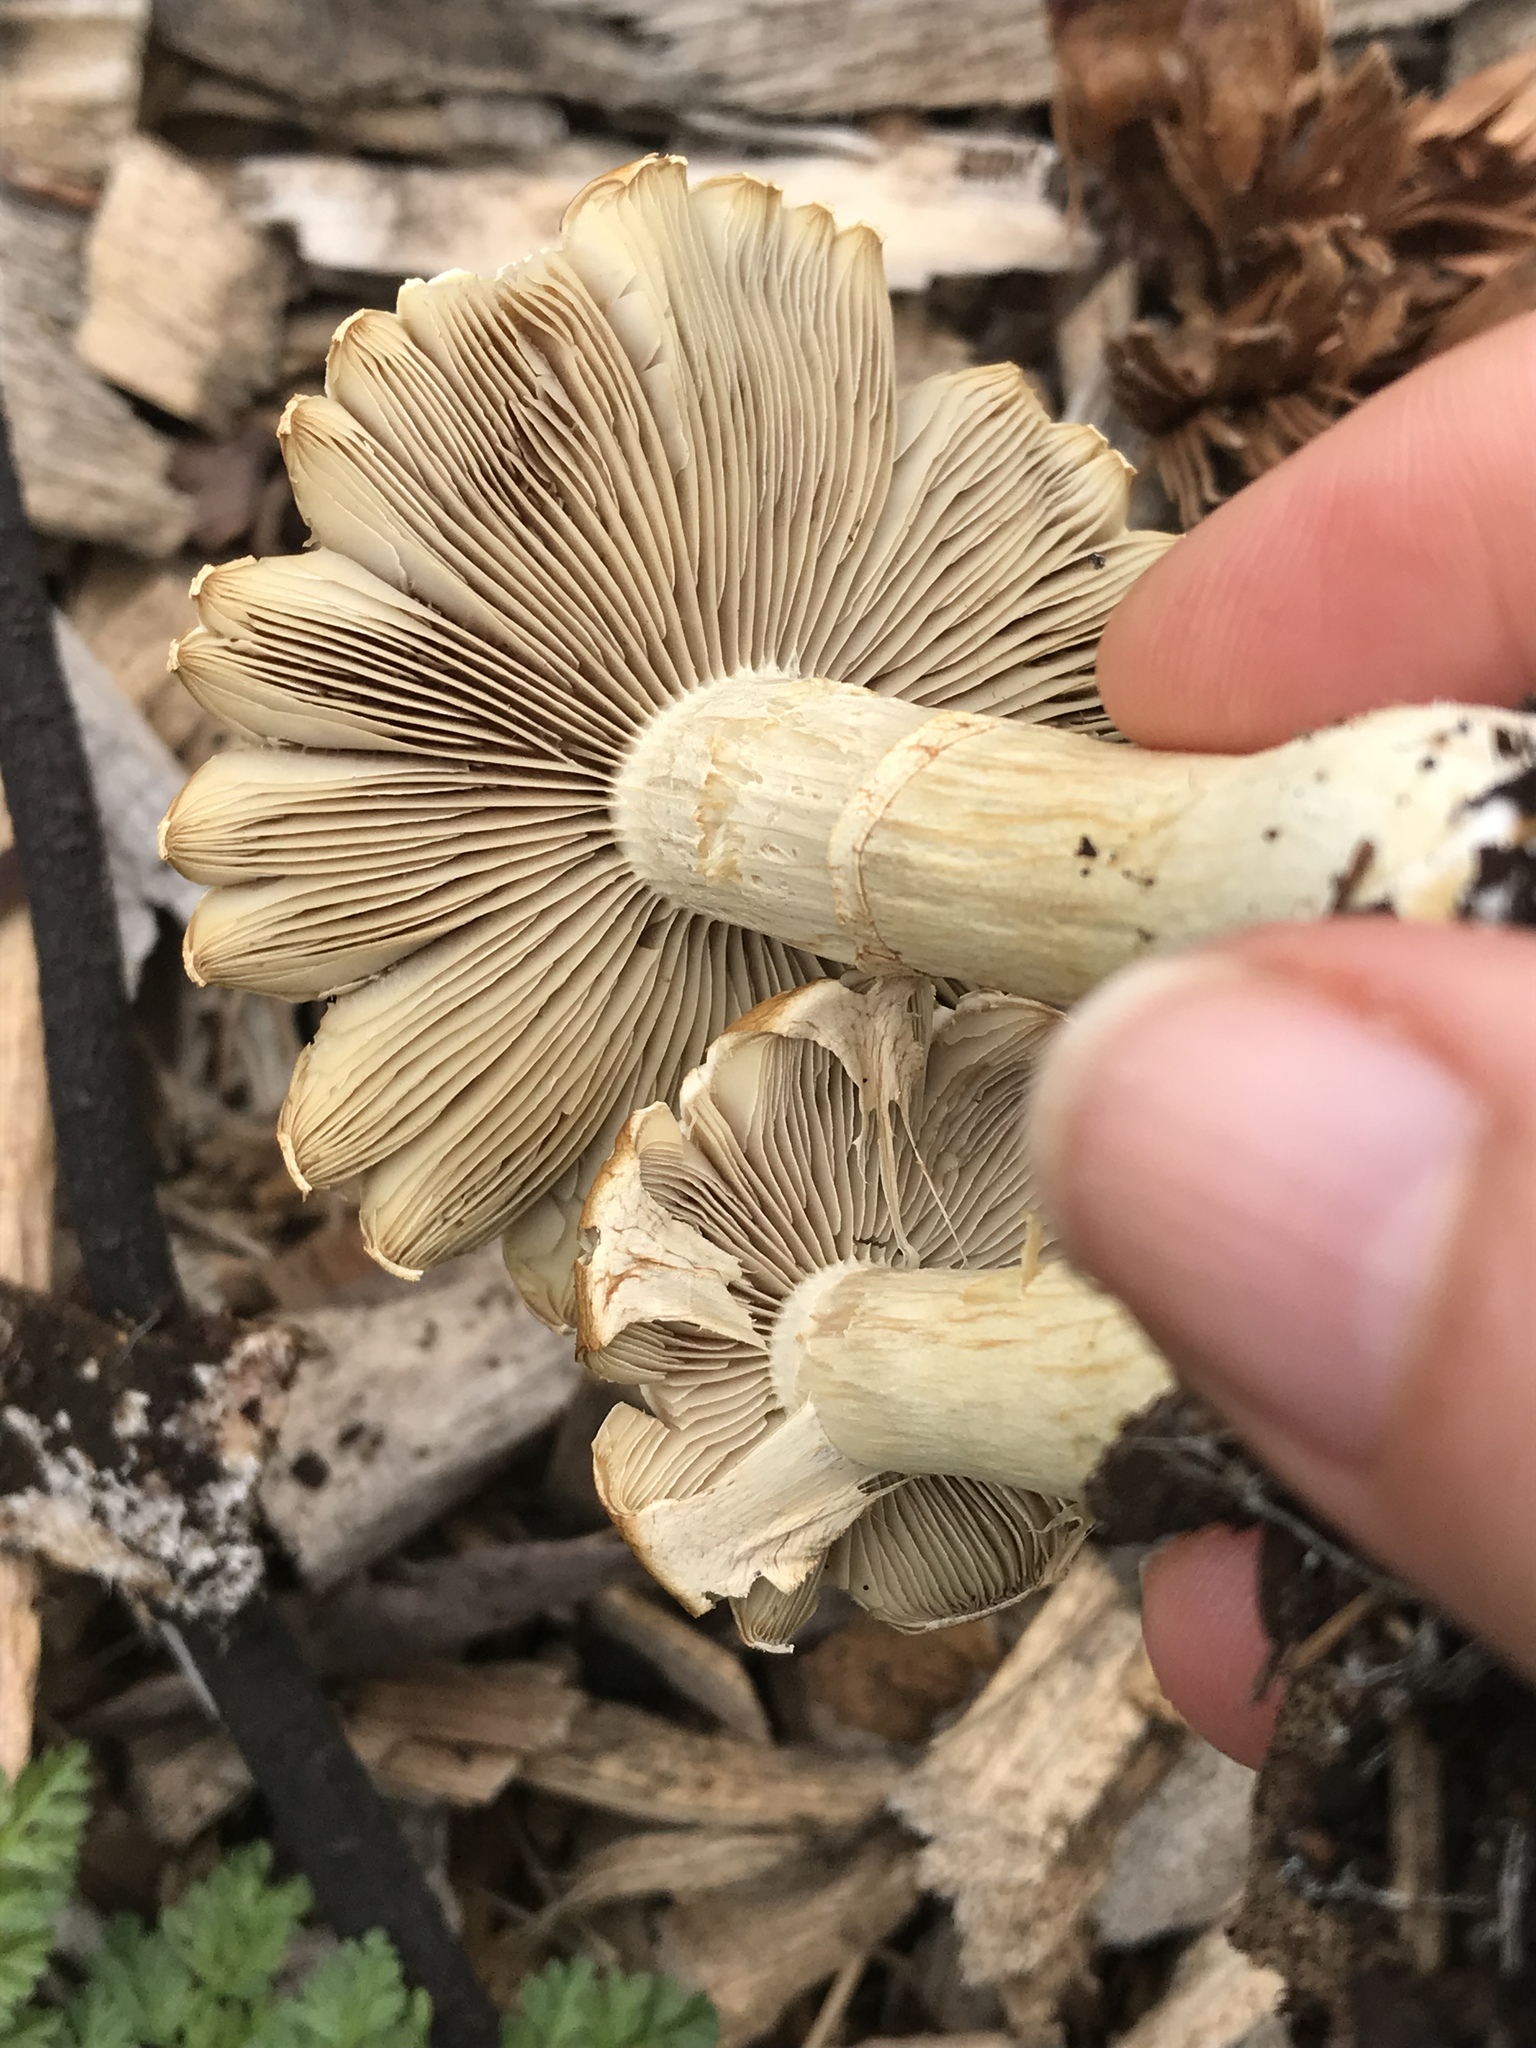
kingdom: Fungi
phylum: Basidiomycota
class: Agaricomycetes
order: Agaricales
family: Strophariaceae
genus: Agrocybe
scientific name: Agrocybe praecox
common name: Spring fieldcap
